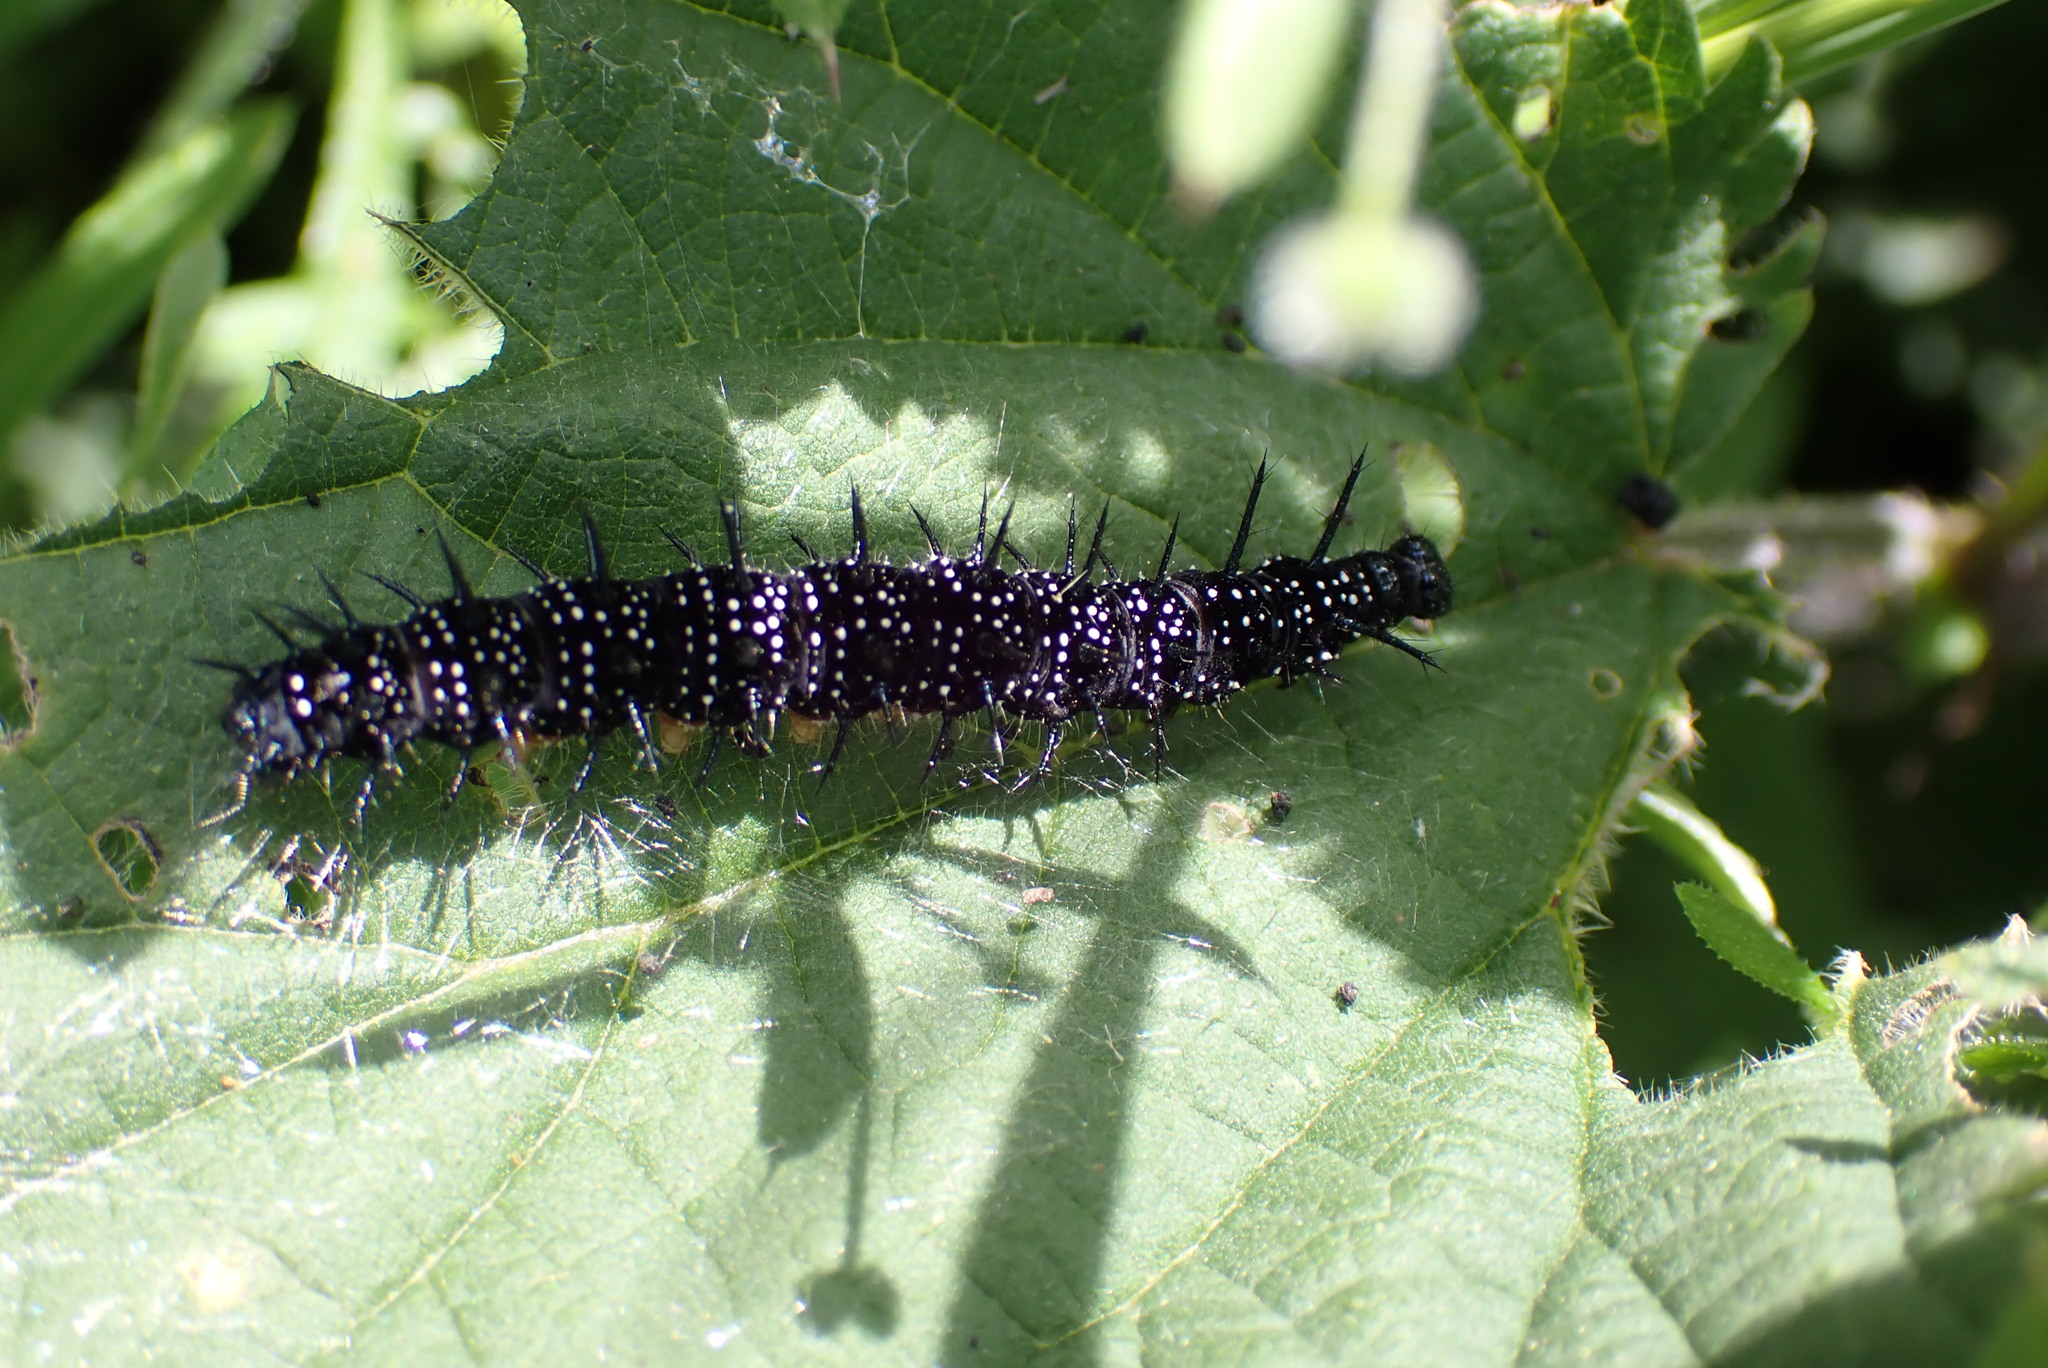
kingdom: Animalia
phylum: Arthropoda
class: Insecta
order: Lepidoptera
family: Nymphalidae
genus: Aglais
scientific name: Aglais io
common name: Peacock
